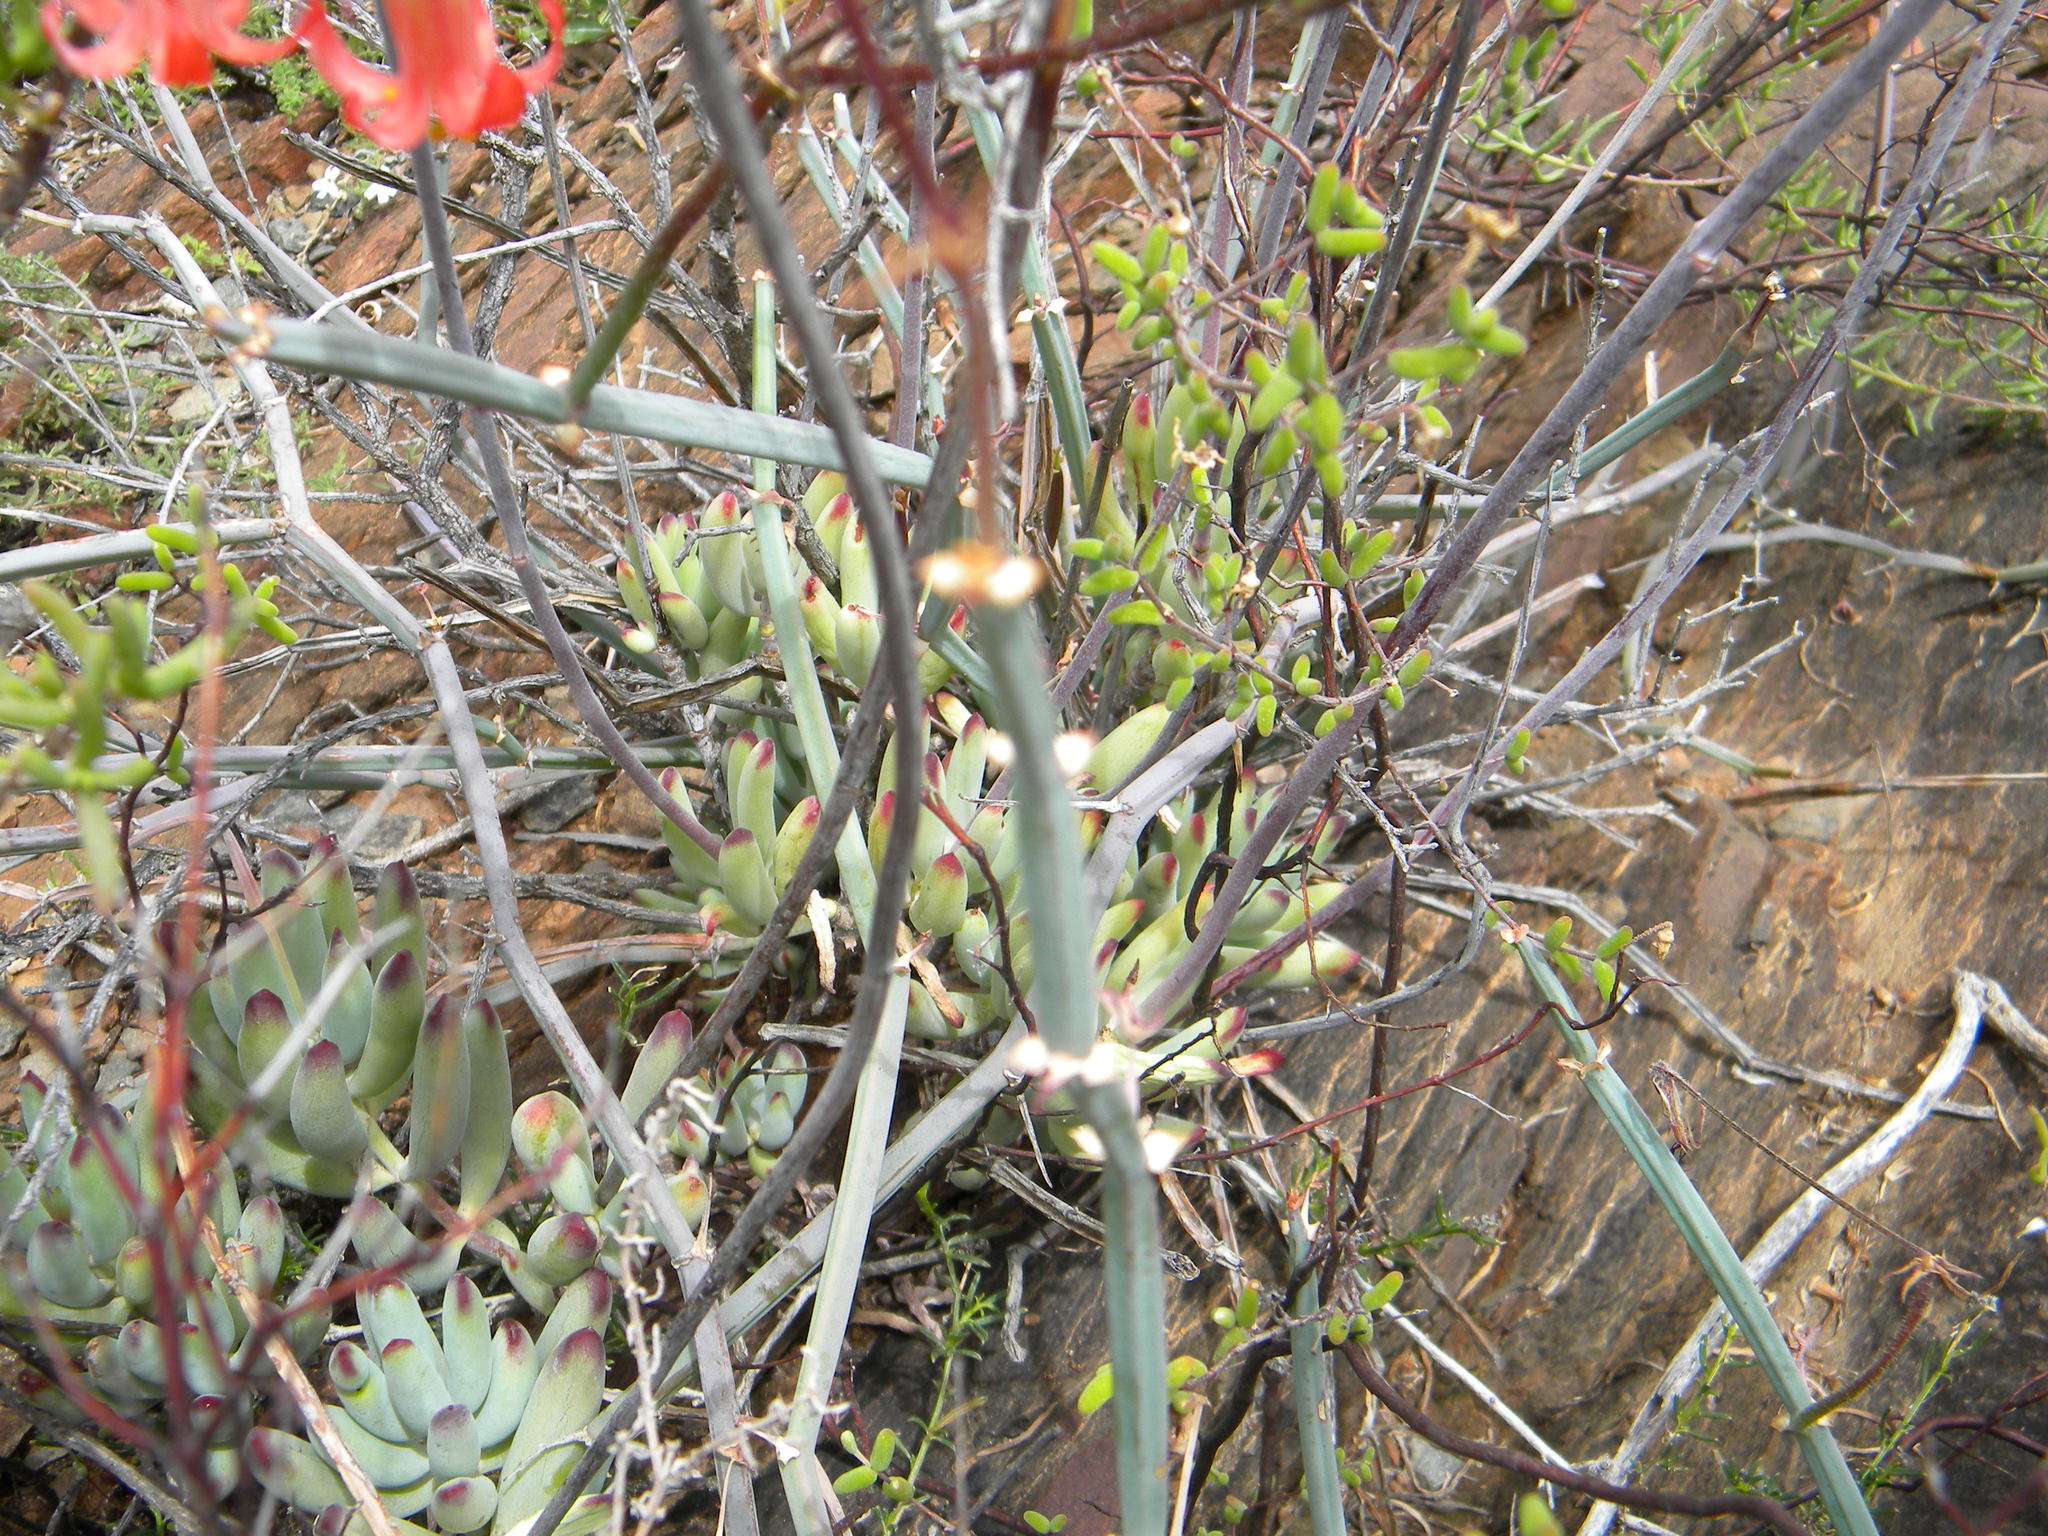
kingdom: Plantae
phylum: Tracheophyta
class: Magnoliopsida
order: Geraniales
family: Geraniaceae
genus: Pelargonium
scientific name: Pelargonium tetragonum
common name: Square-stack crane's-bill
